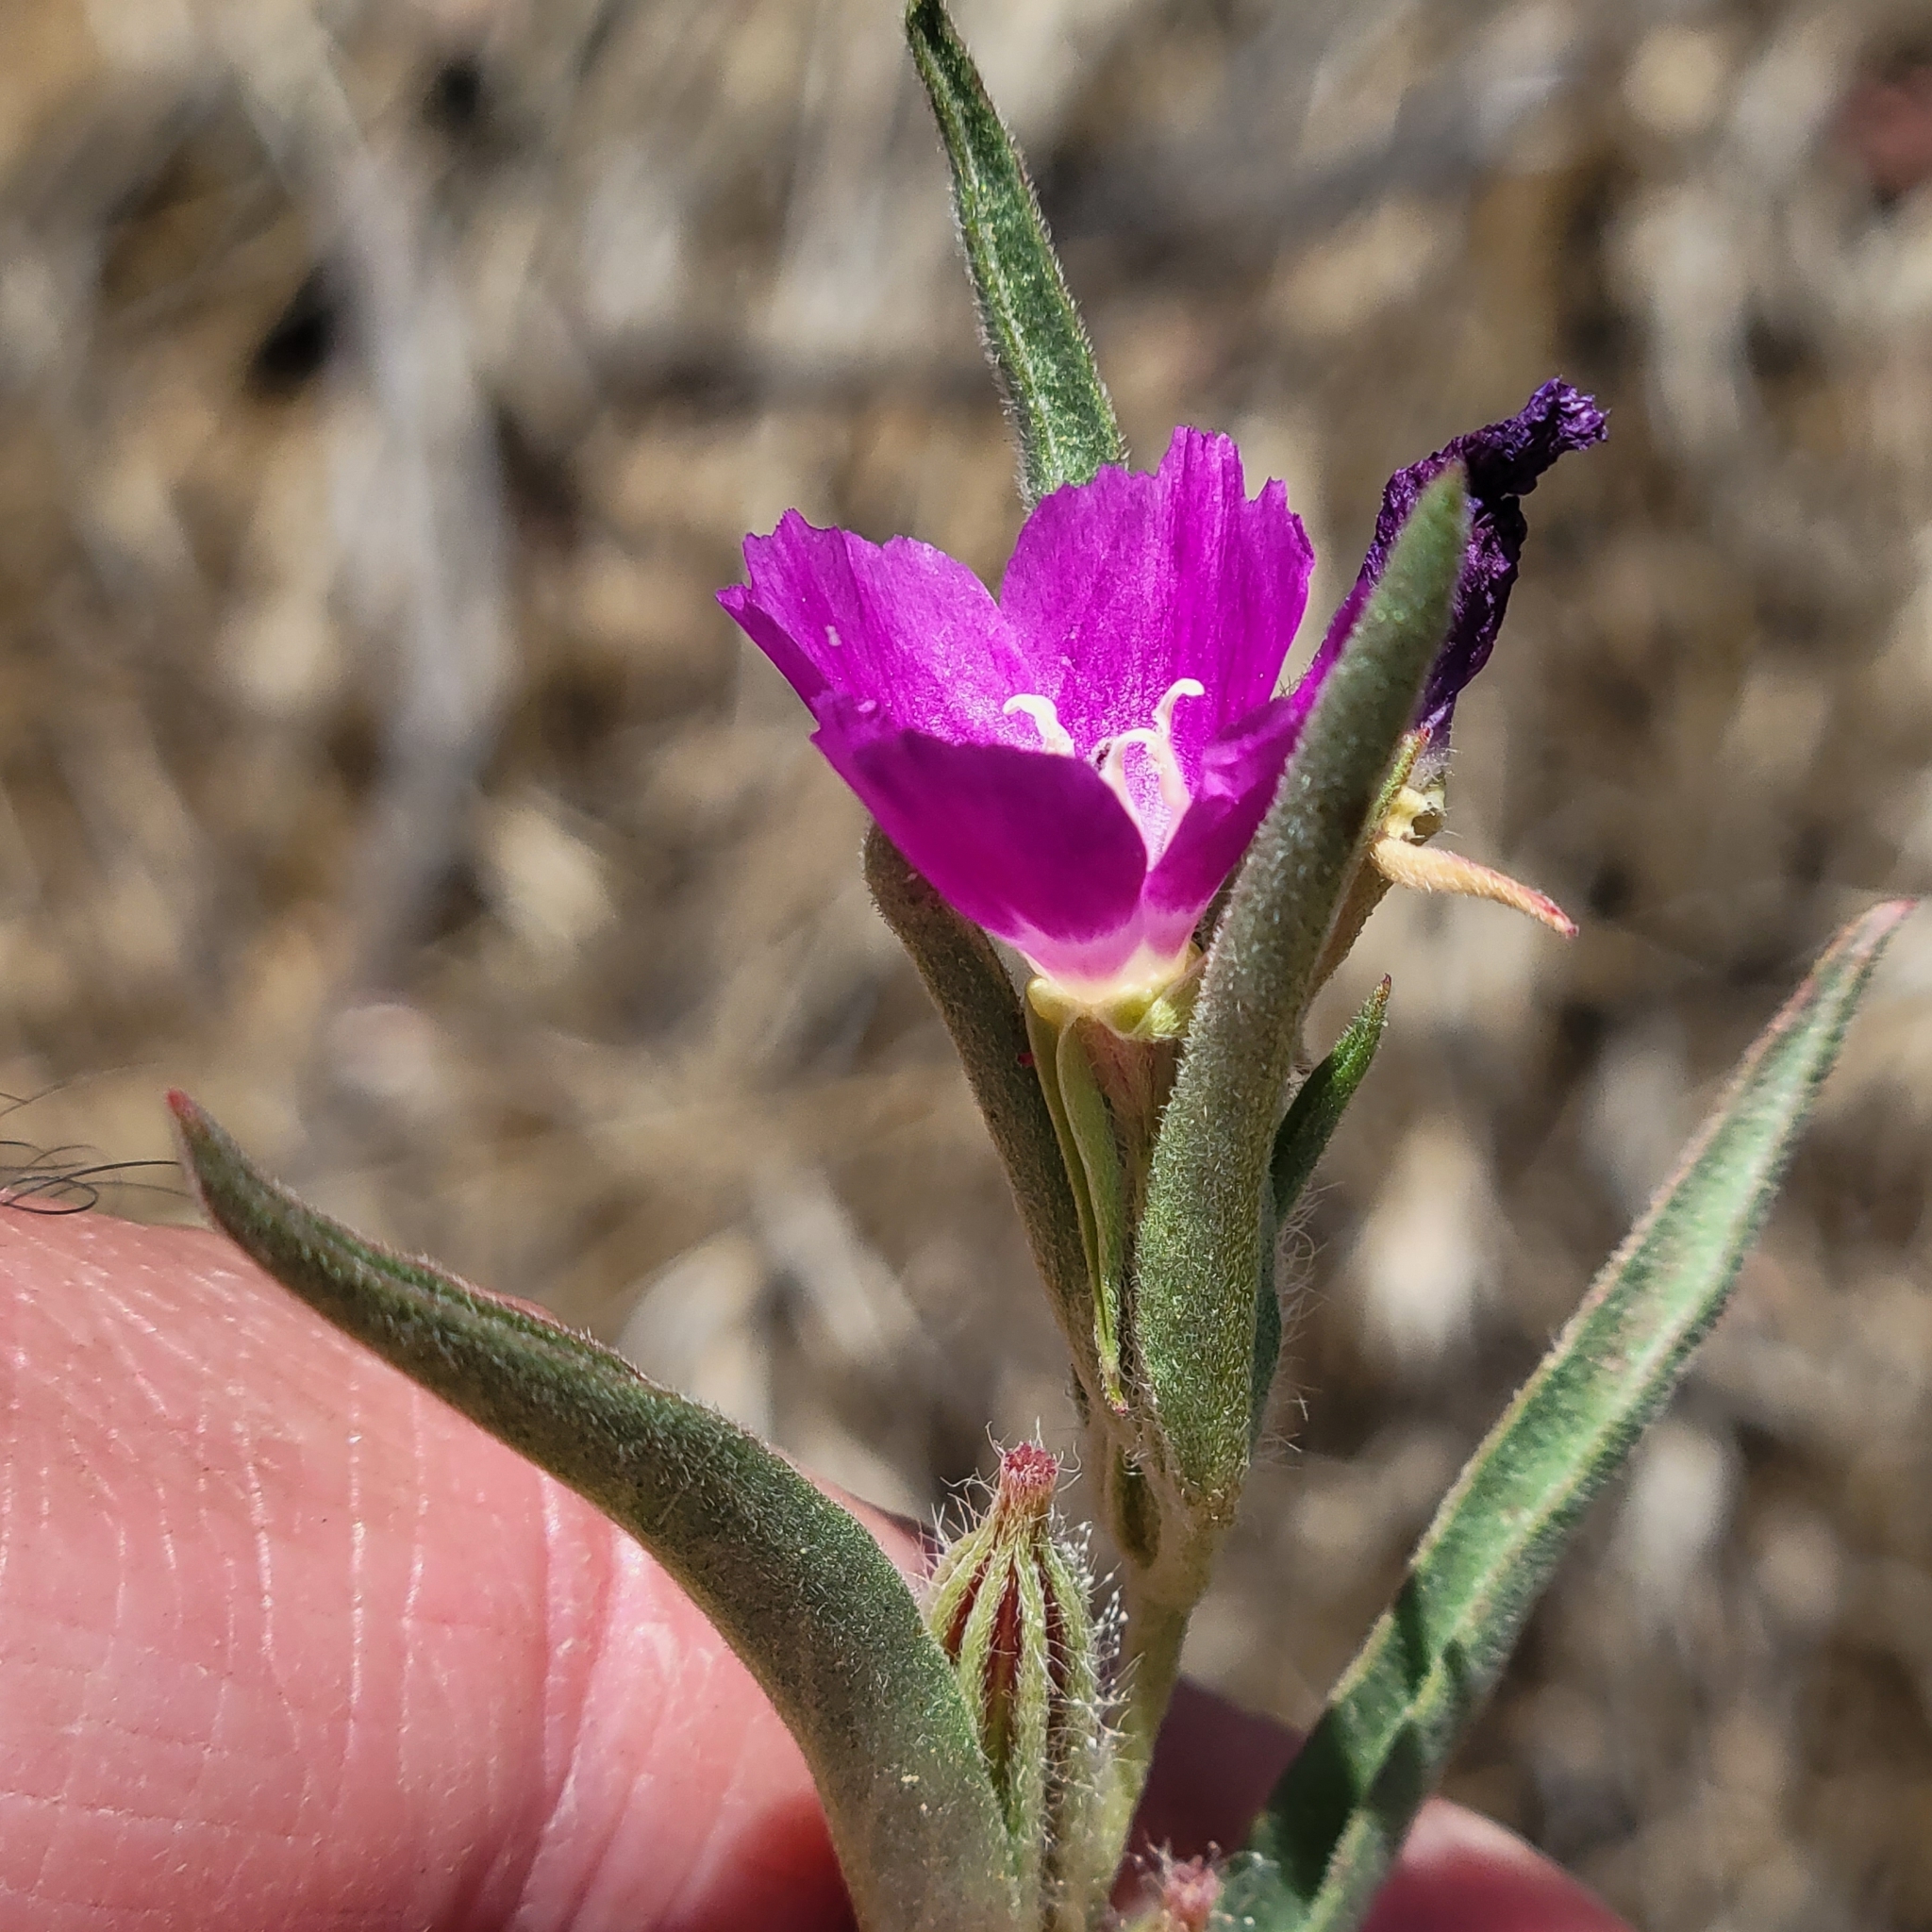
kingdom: Plantae
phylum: Tracheophyta
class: Magnoliopsida
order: Myrtales
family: Onagraceae
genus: Clarkia
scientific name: Clarkia purpurea
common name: Purple clarkia
